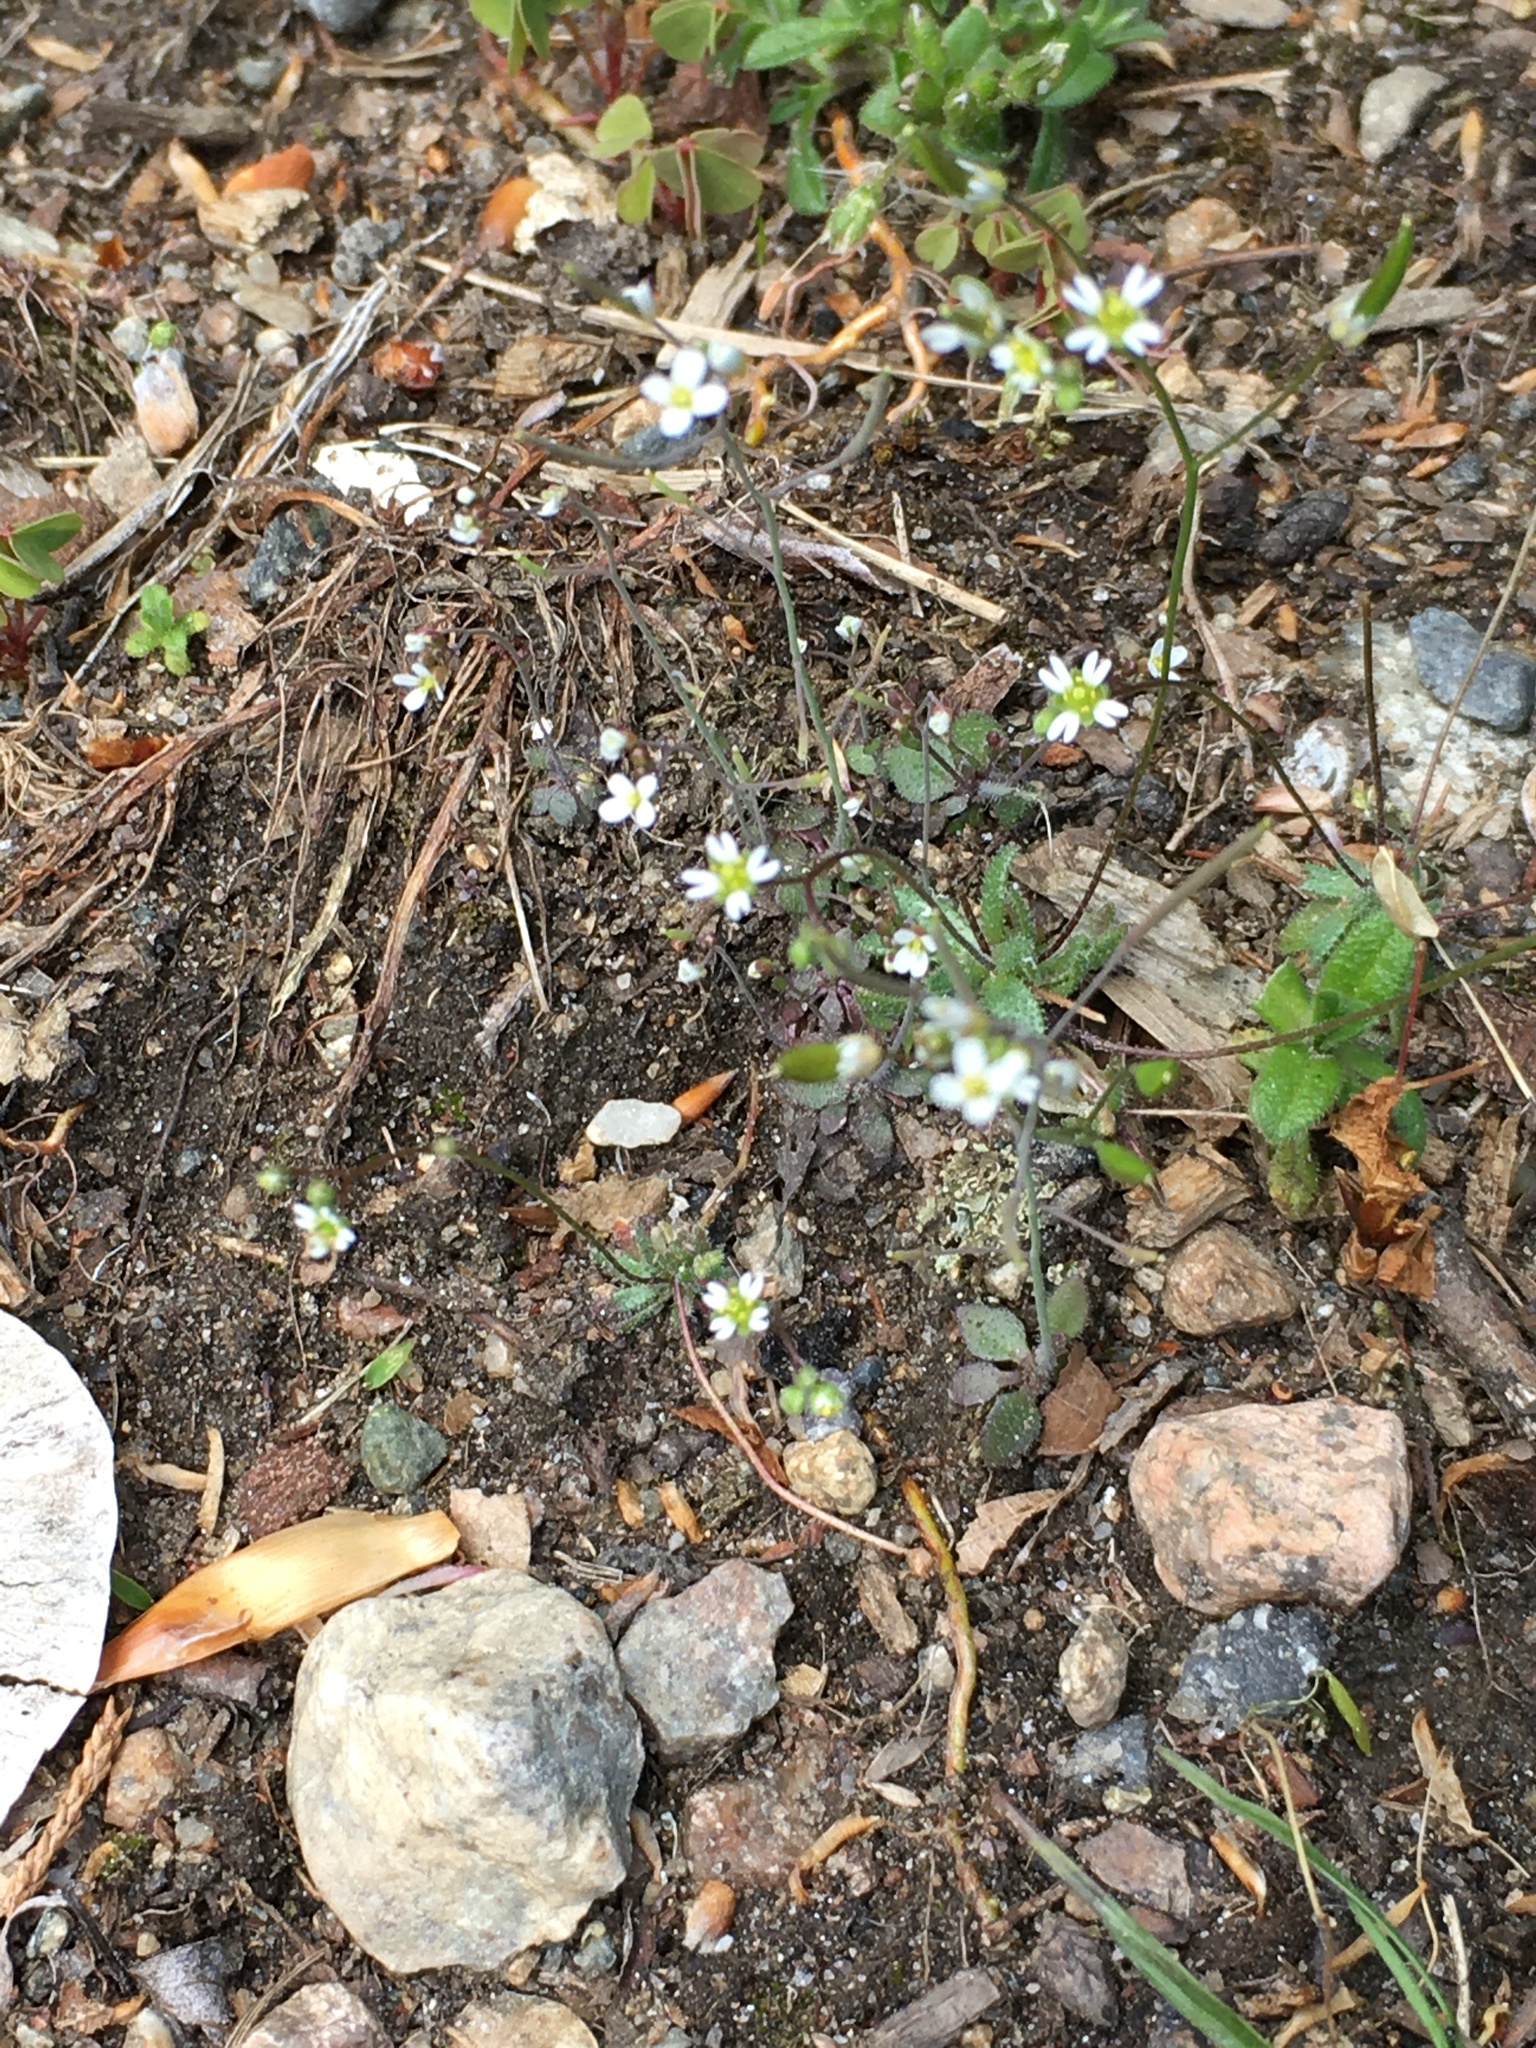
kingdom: Plantae
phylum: Tracheophyta
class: Magnoliopsida
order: Brassicales
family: Brassicaceae
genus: Draba
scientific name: Draba verna
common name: Spring draba
